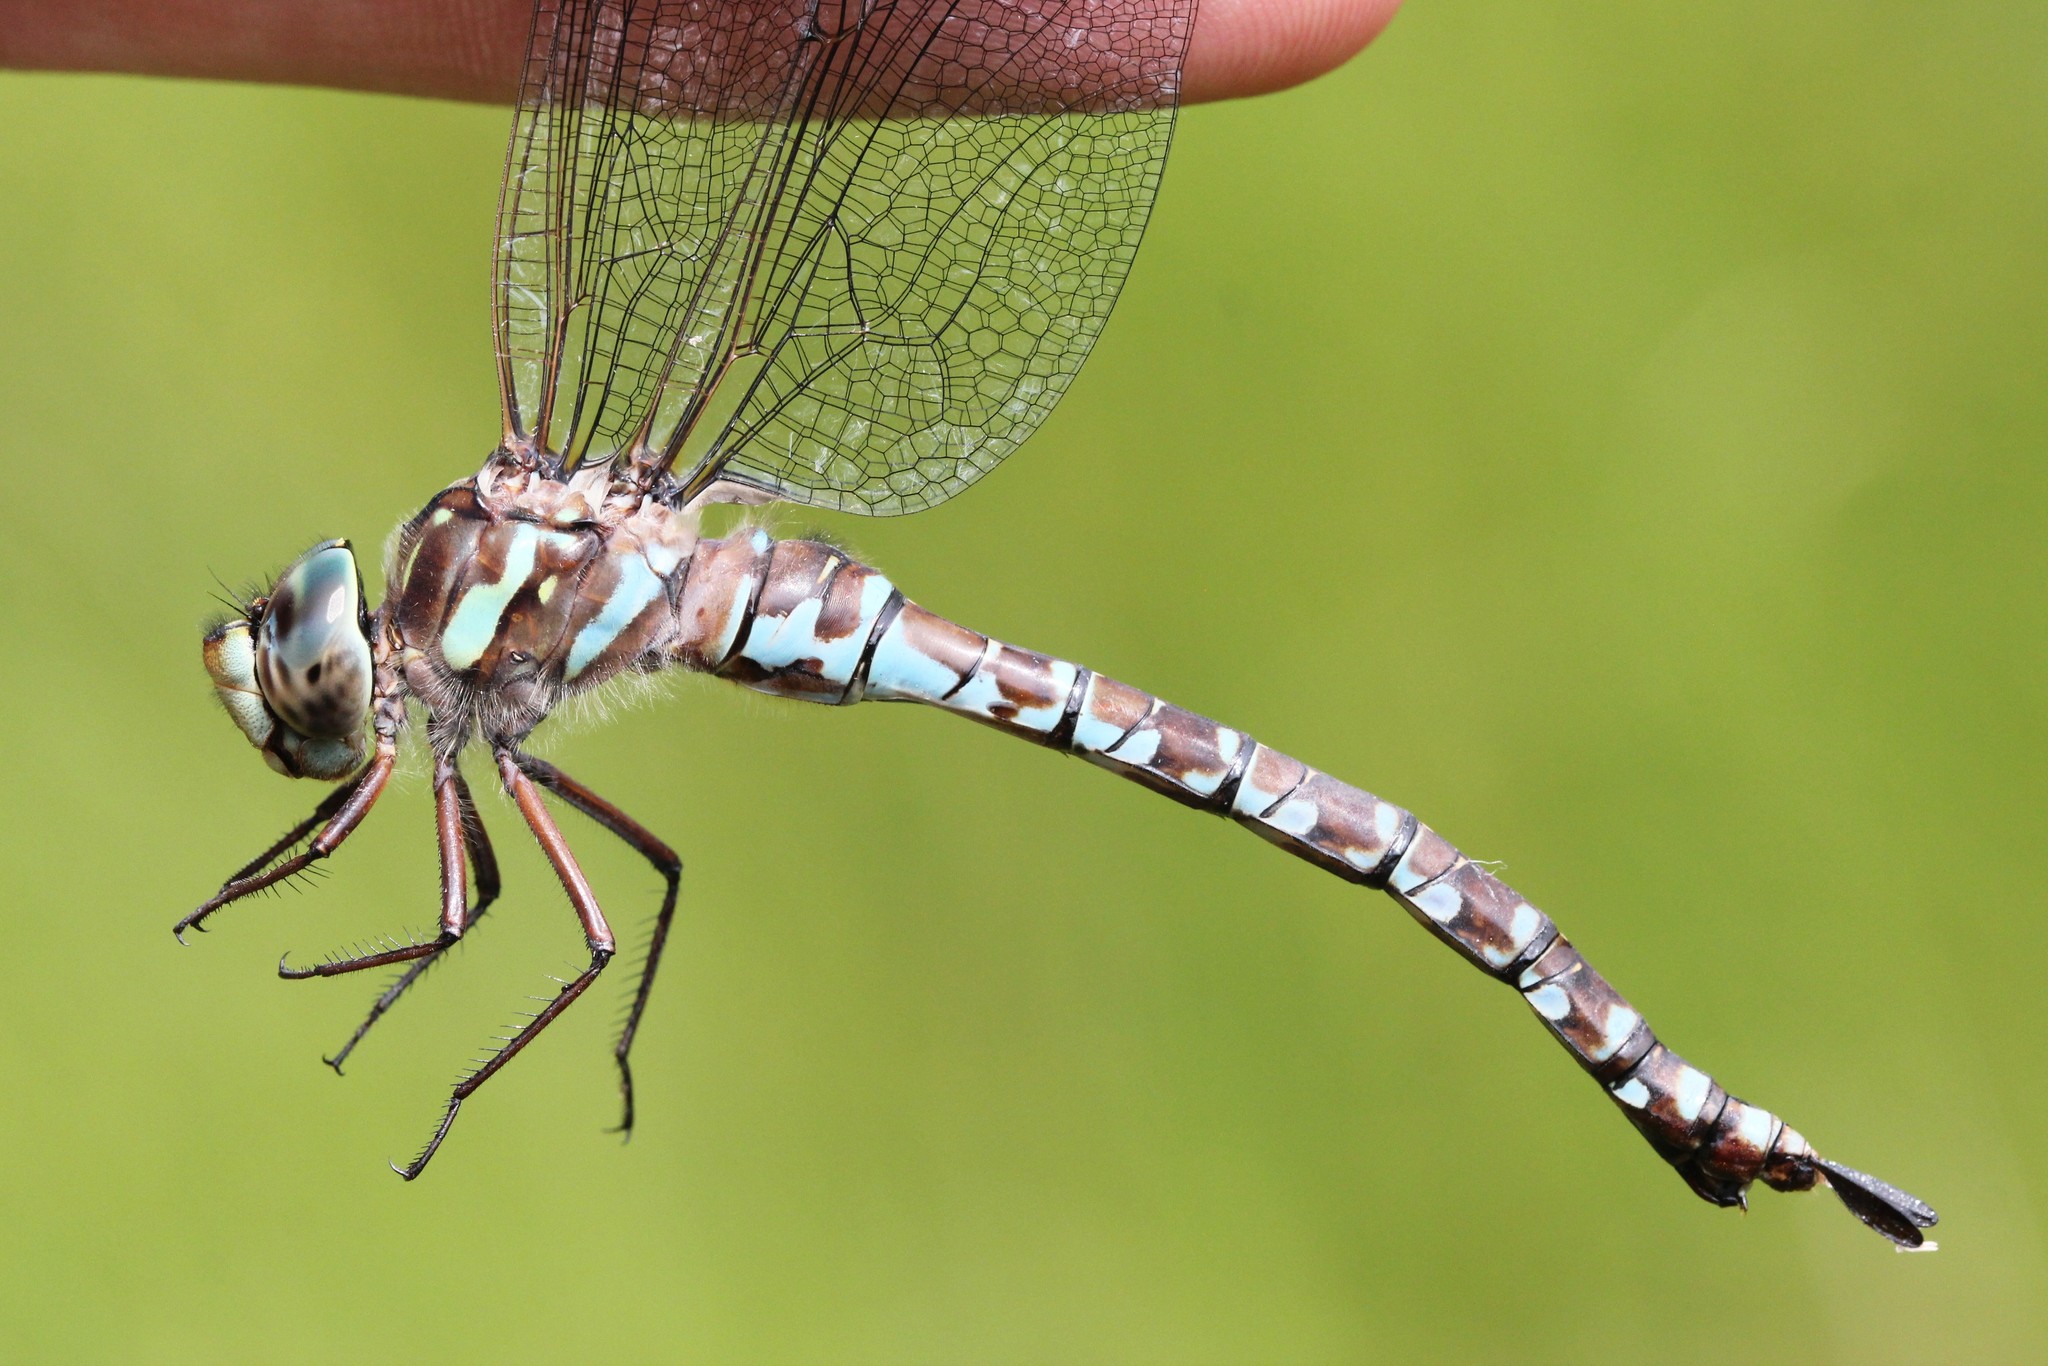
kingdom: Animalia
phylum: Arthropoda
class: Insecta
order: Odonata
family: Aeshnidae
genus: Aeshna
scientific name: Aeshna canadensis
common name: Canada darner
